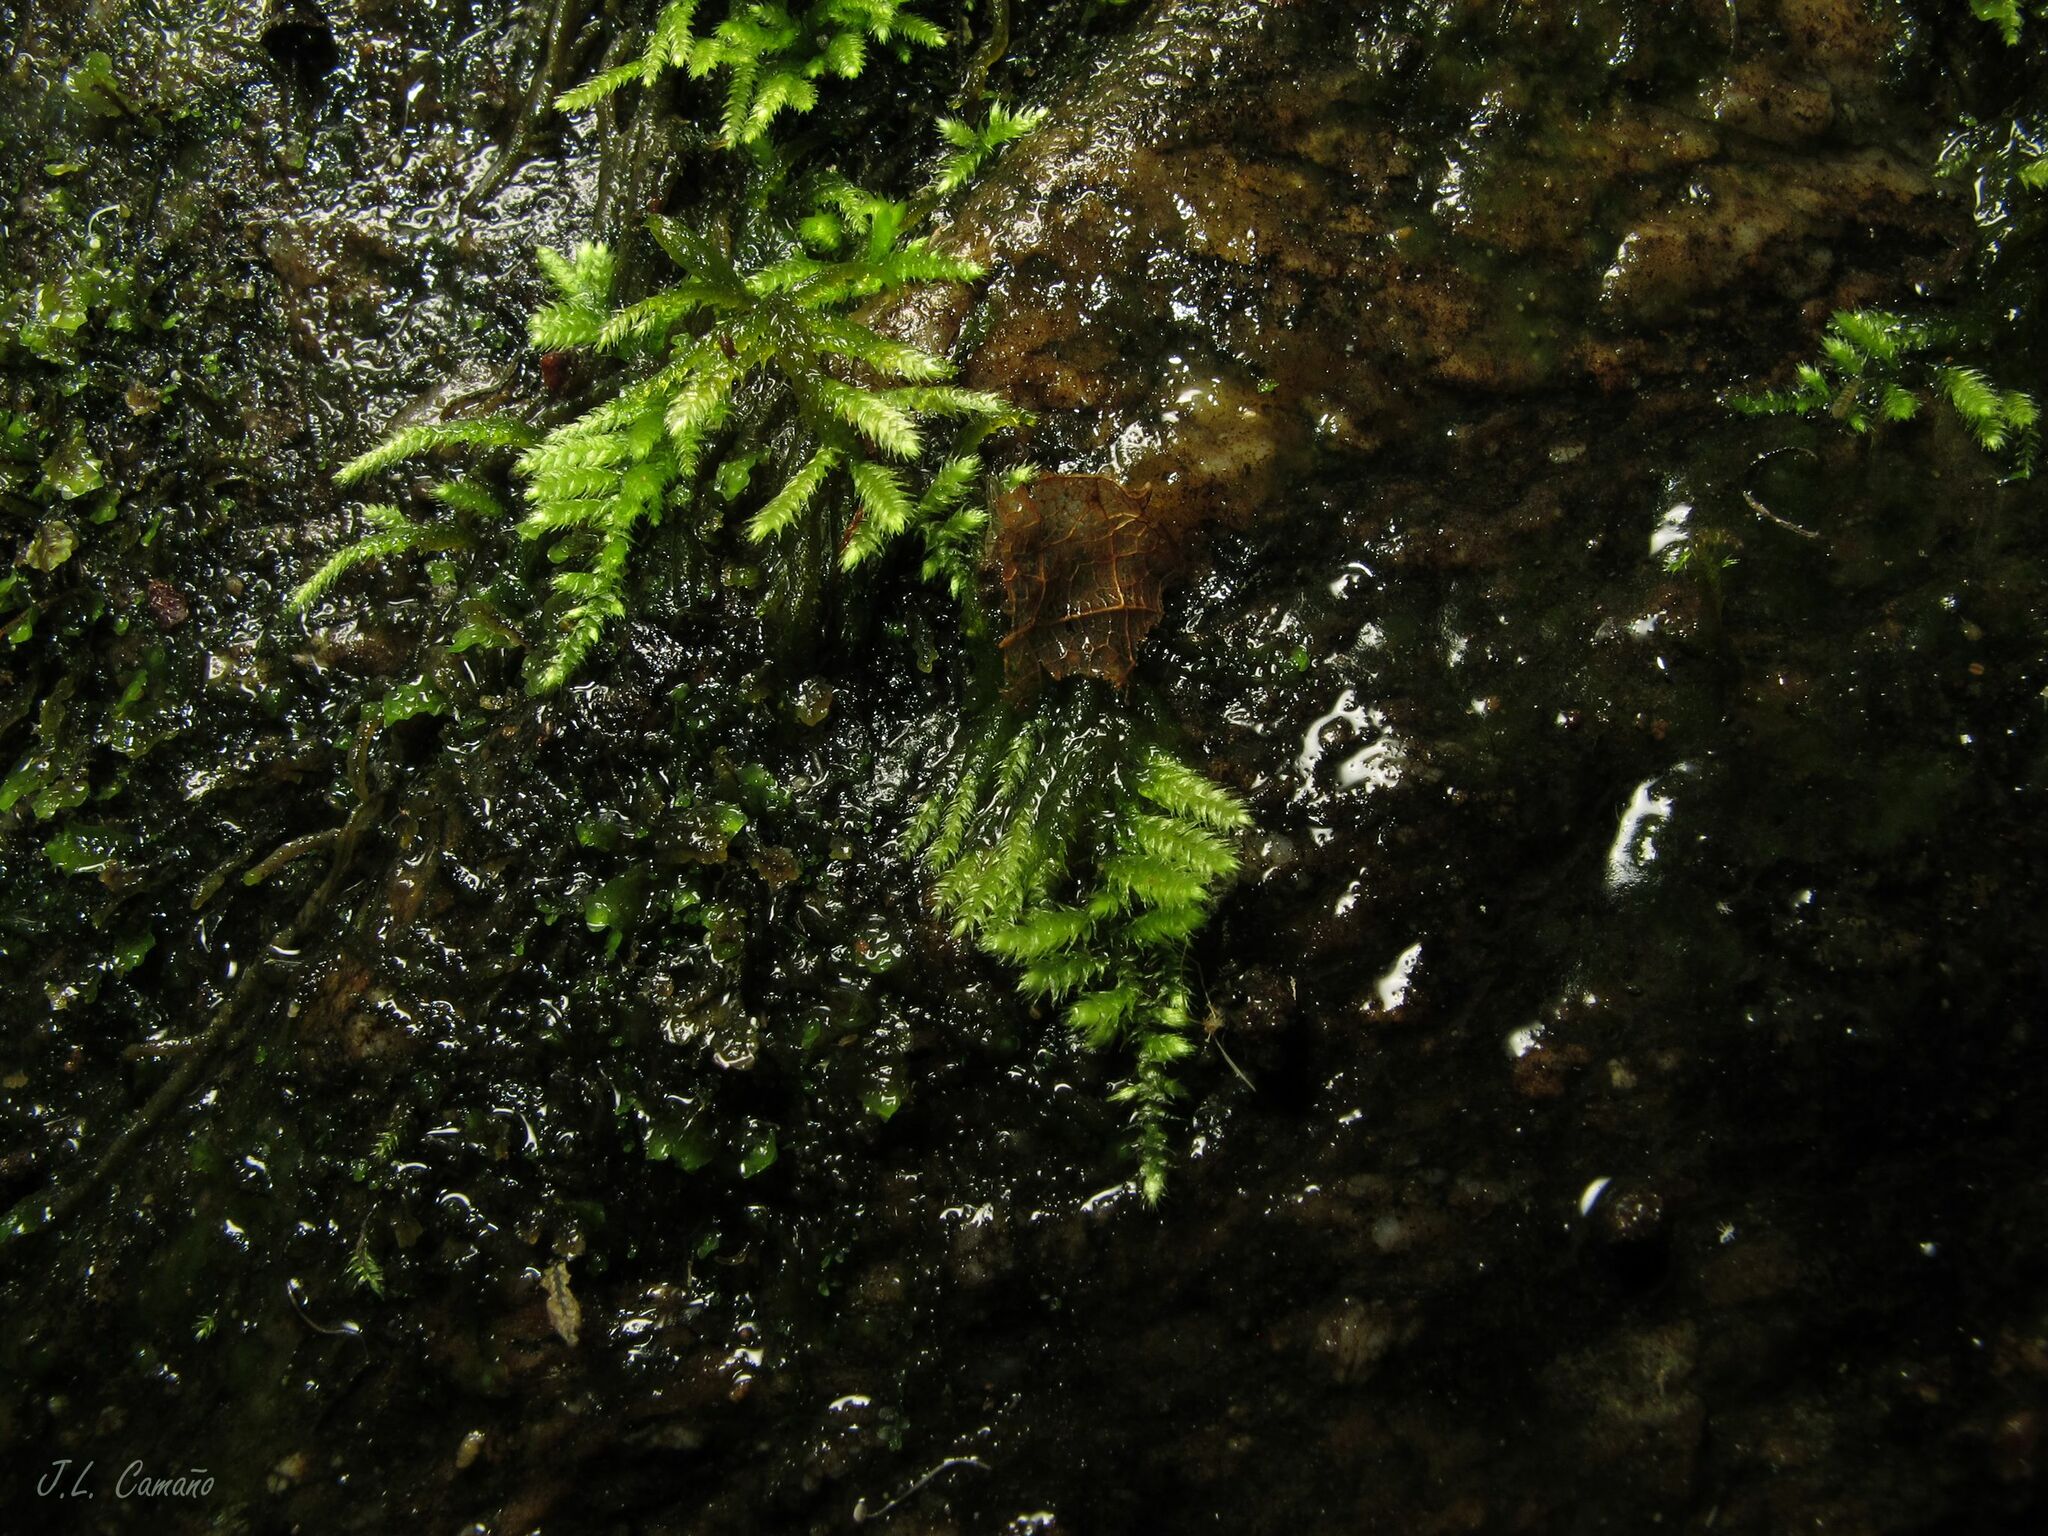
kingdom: Plantae
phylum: Bryophyta
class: Bryopsida
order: Hypnales
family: Myuriaceae
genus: Hyocomium
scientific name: Hyocomium armoricum
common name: Flagellate feather-moss
